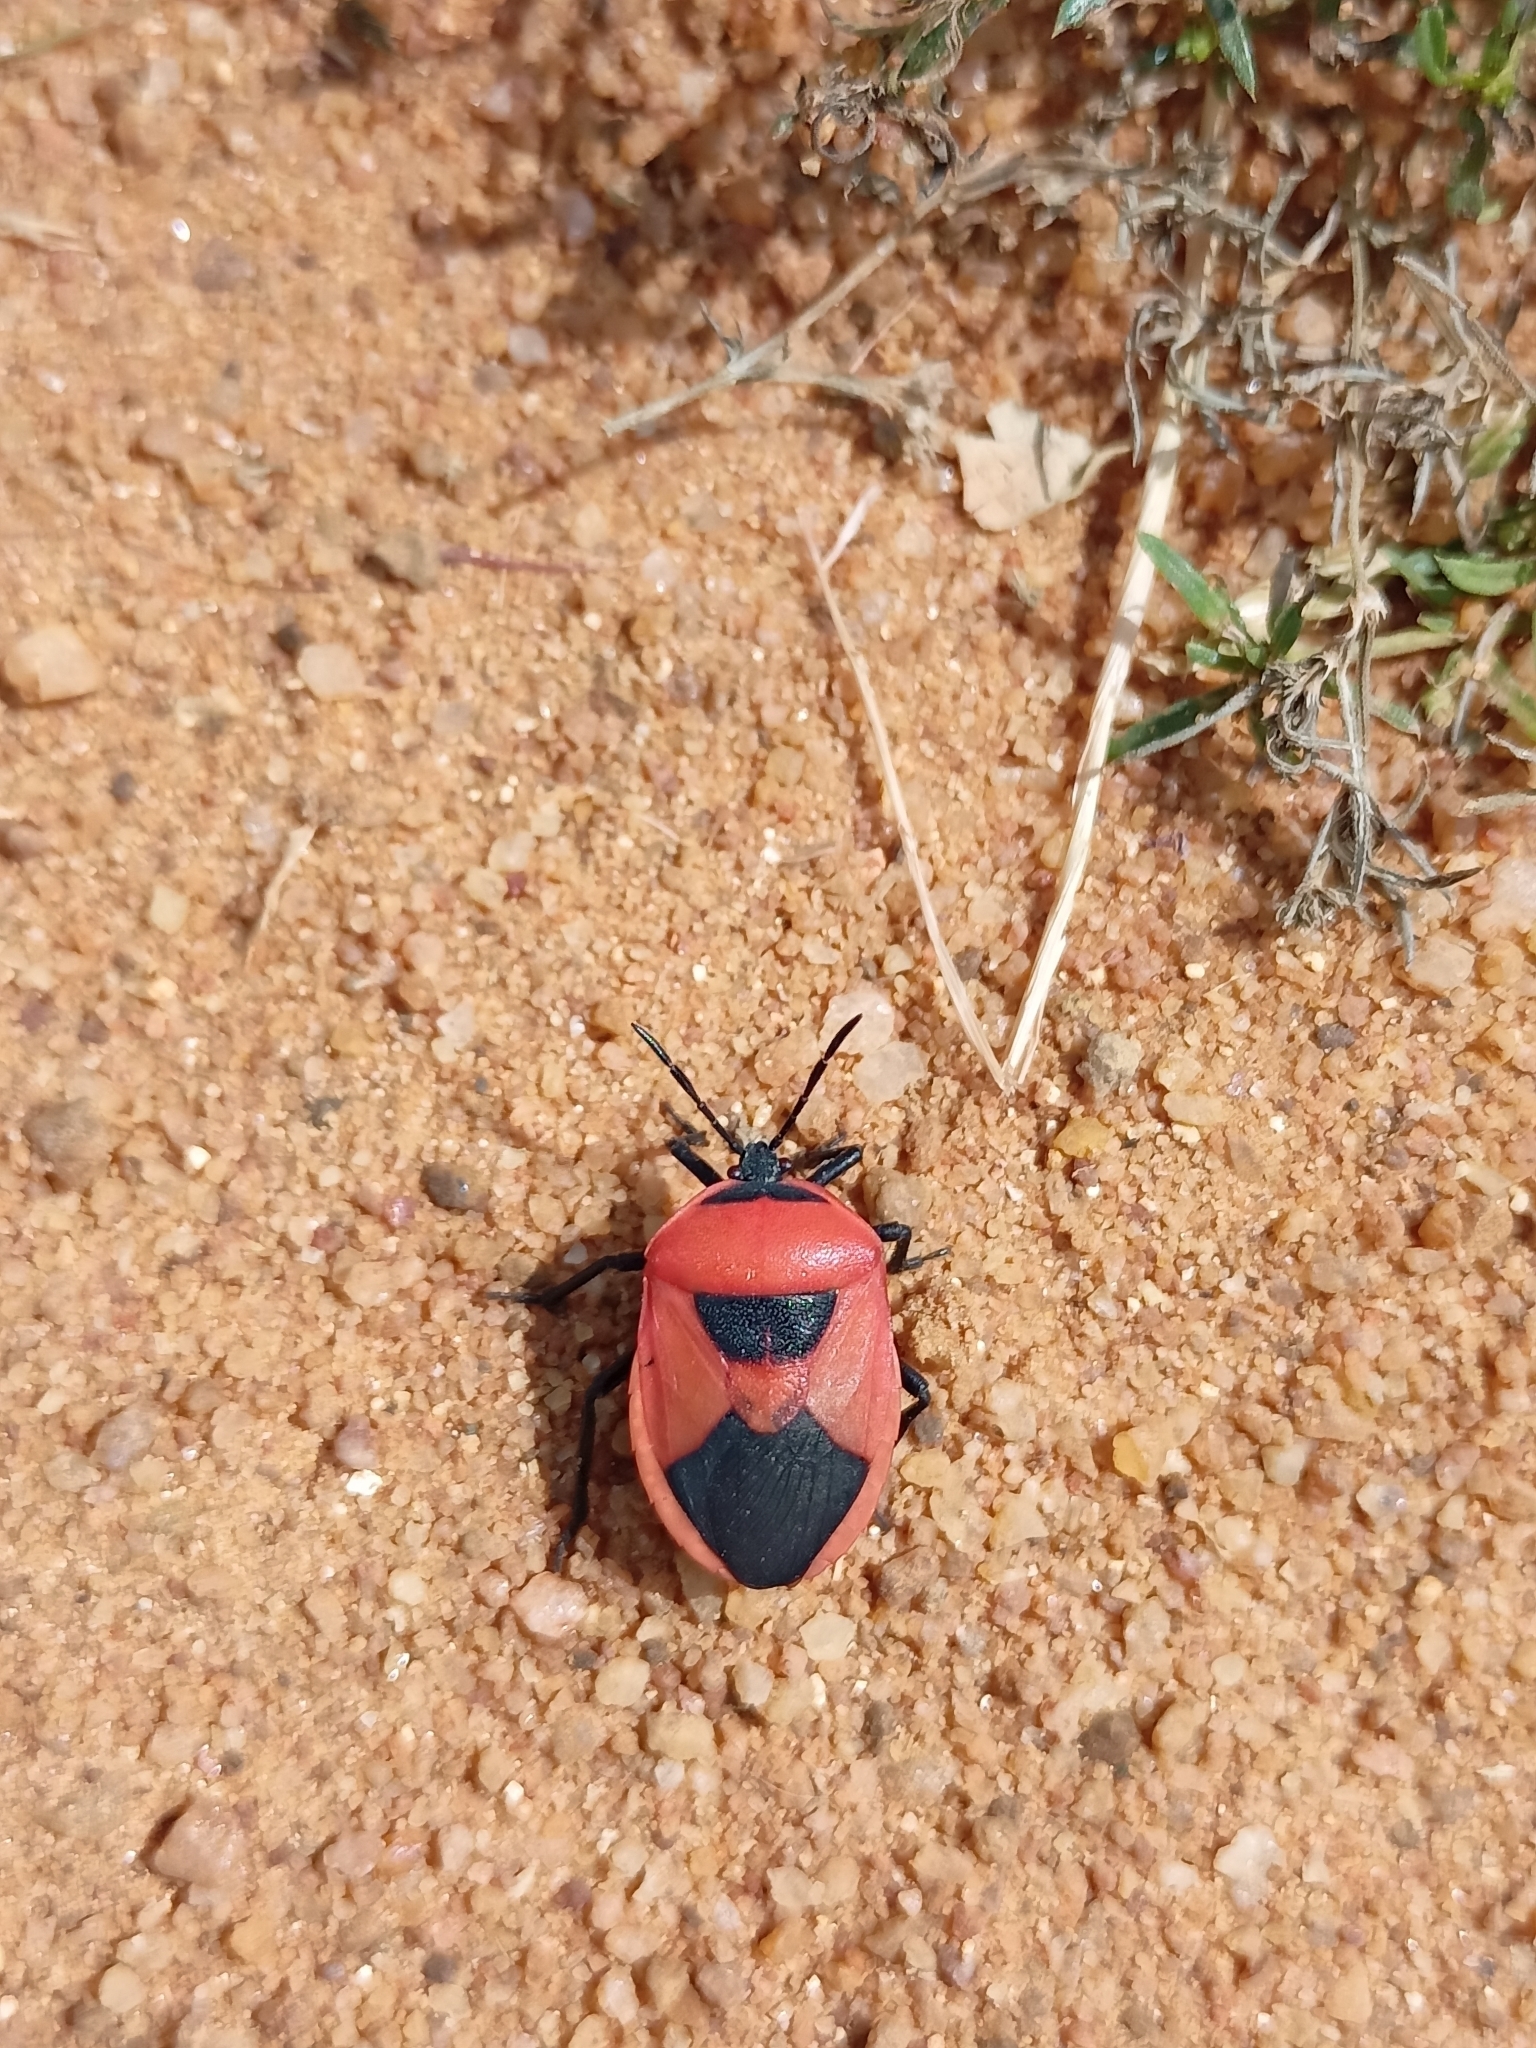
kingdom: Animalia
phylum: Arthropoda
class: Insecta
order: Hemiptera
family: Dinidoridae
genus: Coridius
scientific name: Coridius ianus
